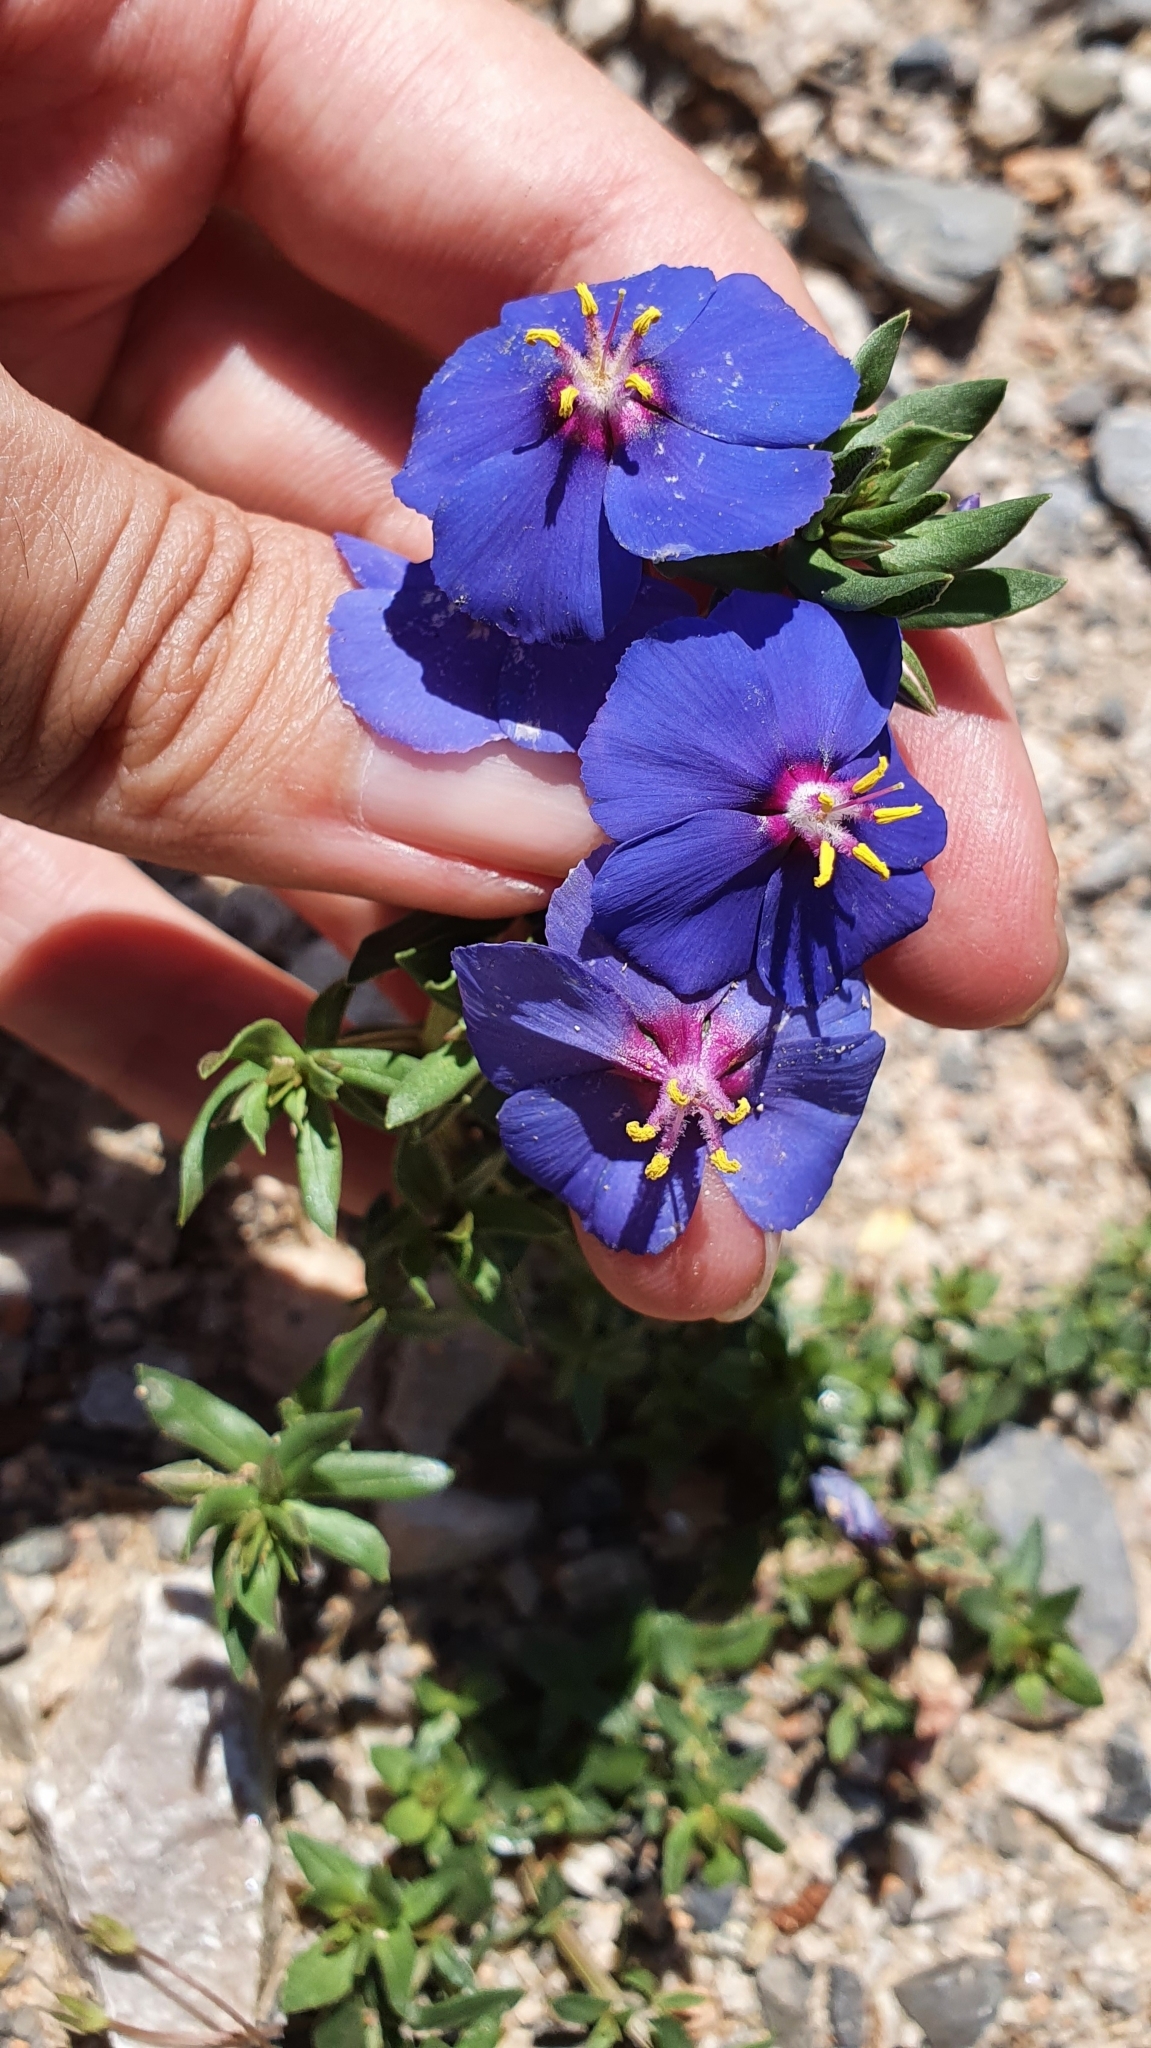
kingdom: Plantae
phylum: Tracheophyta
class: Magnoliopsida
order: Ericales
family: Primulaceae
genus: Lysimachia
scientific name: Lysimachia monelli
